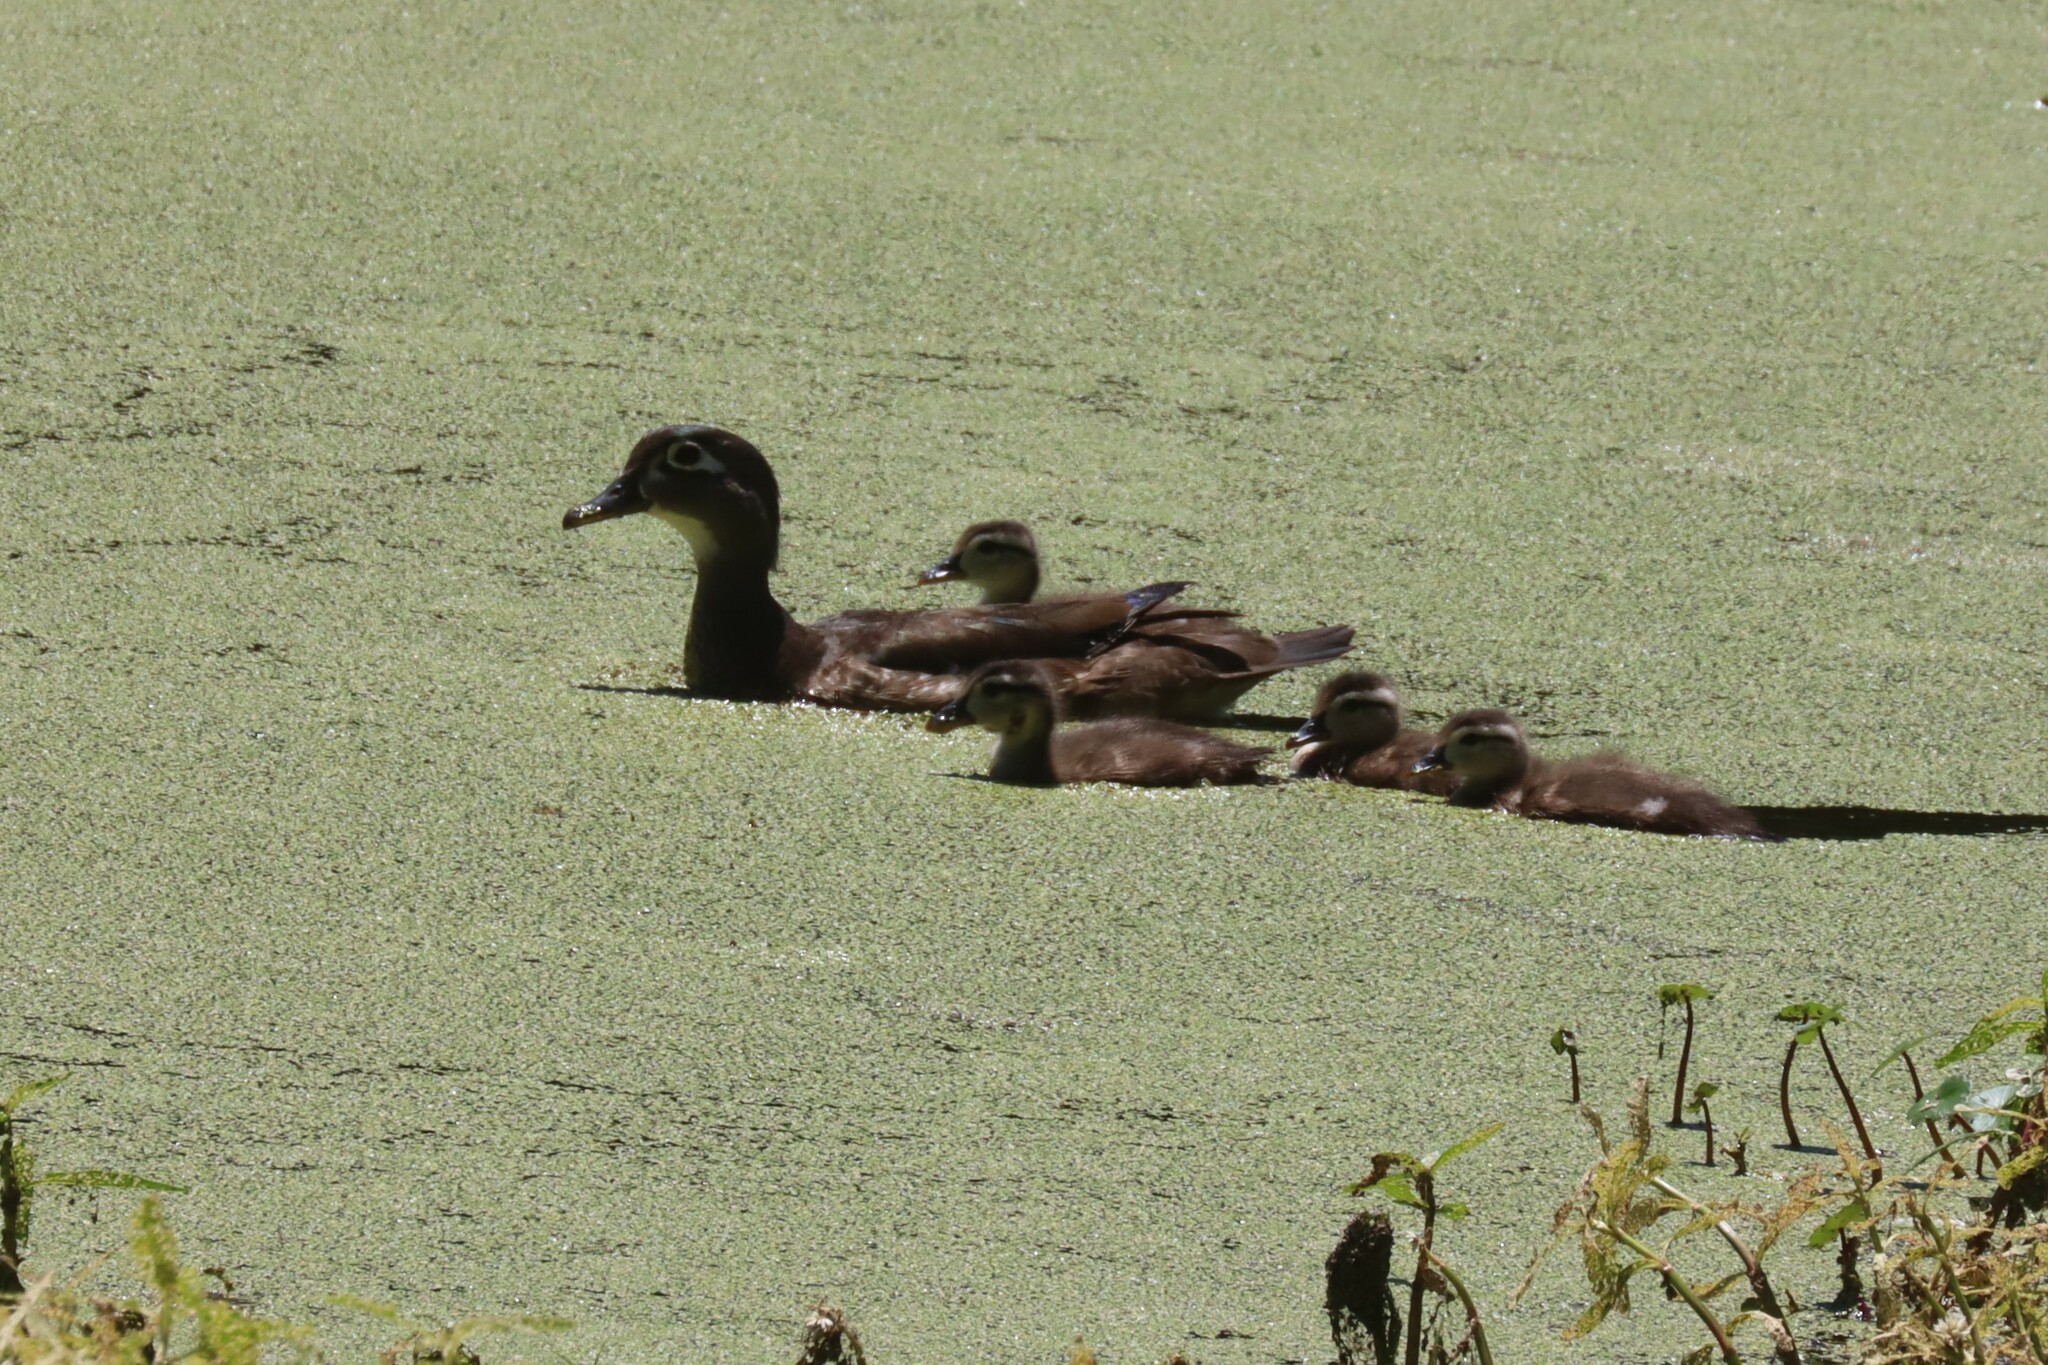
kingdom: Animalia
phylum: Chordata
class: Aves
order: Anseriformes
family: Anatidae
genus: Aix
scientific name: Aix sponsa
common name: Wood duck
